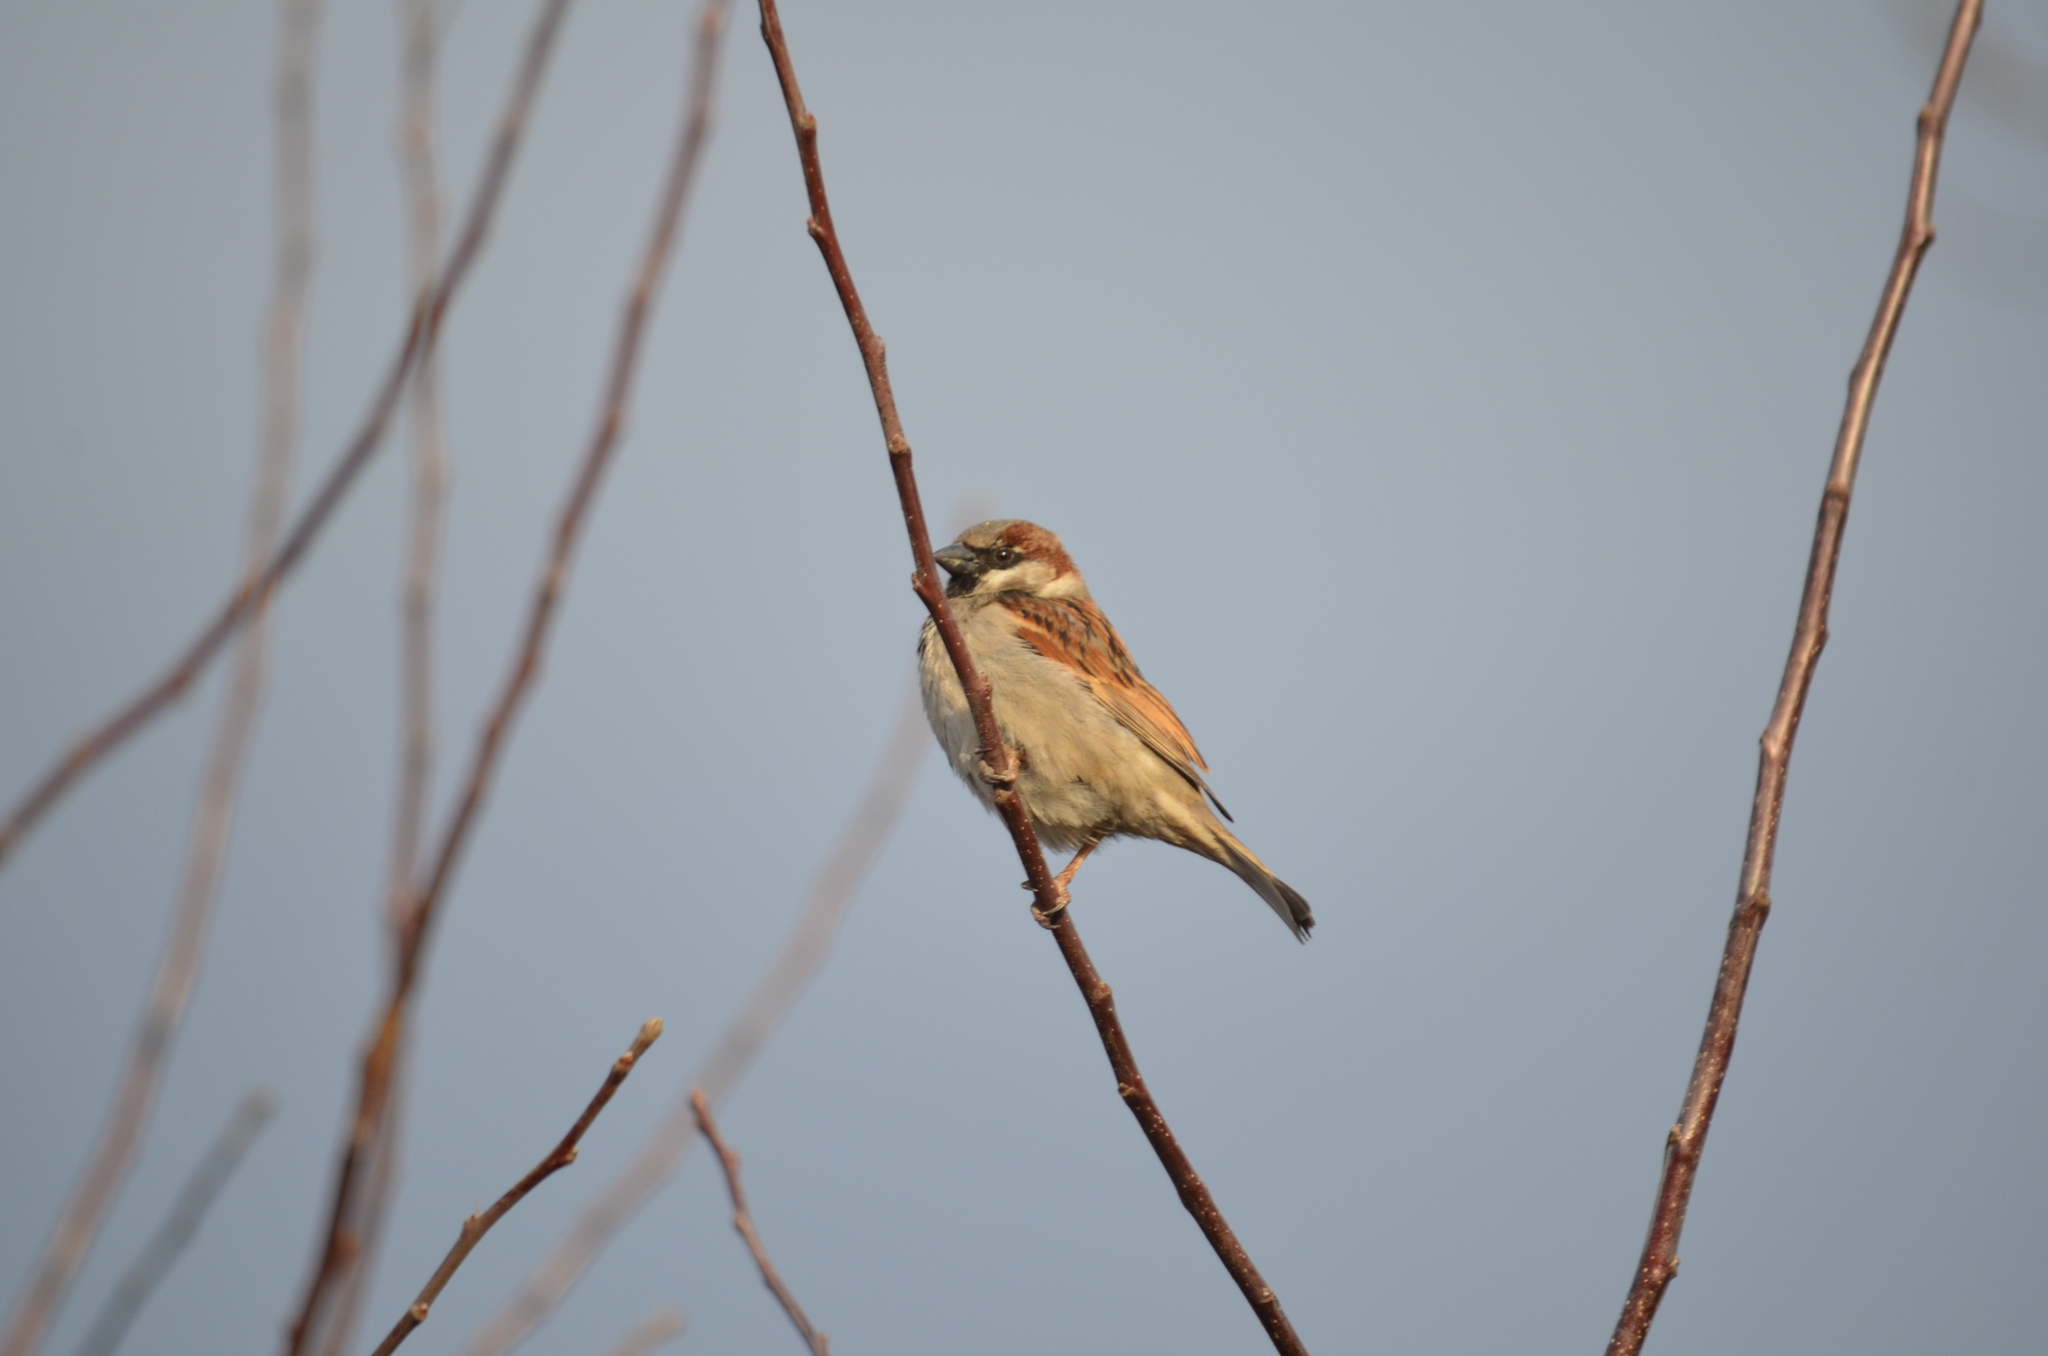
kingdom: Animalia
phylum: Chordata
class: Aves
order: Passeriformes
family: Passeridae
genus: Passer
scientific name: Passer domesticus
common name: House sparrow
